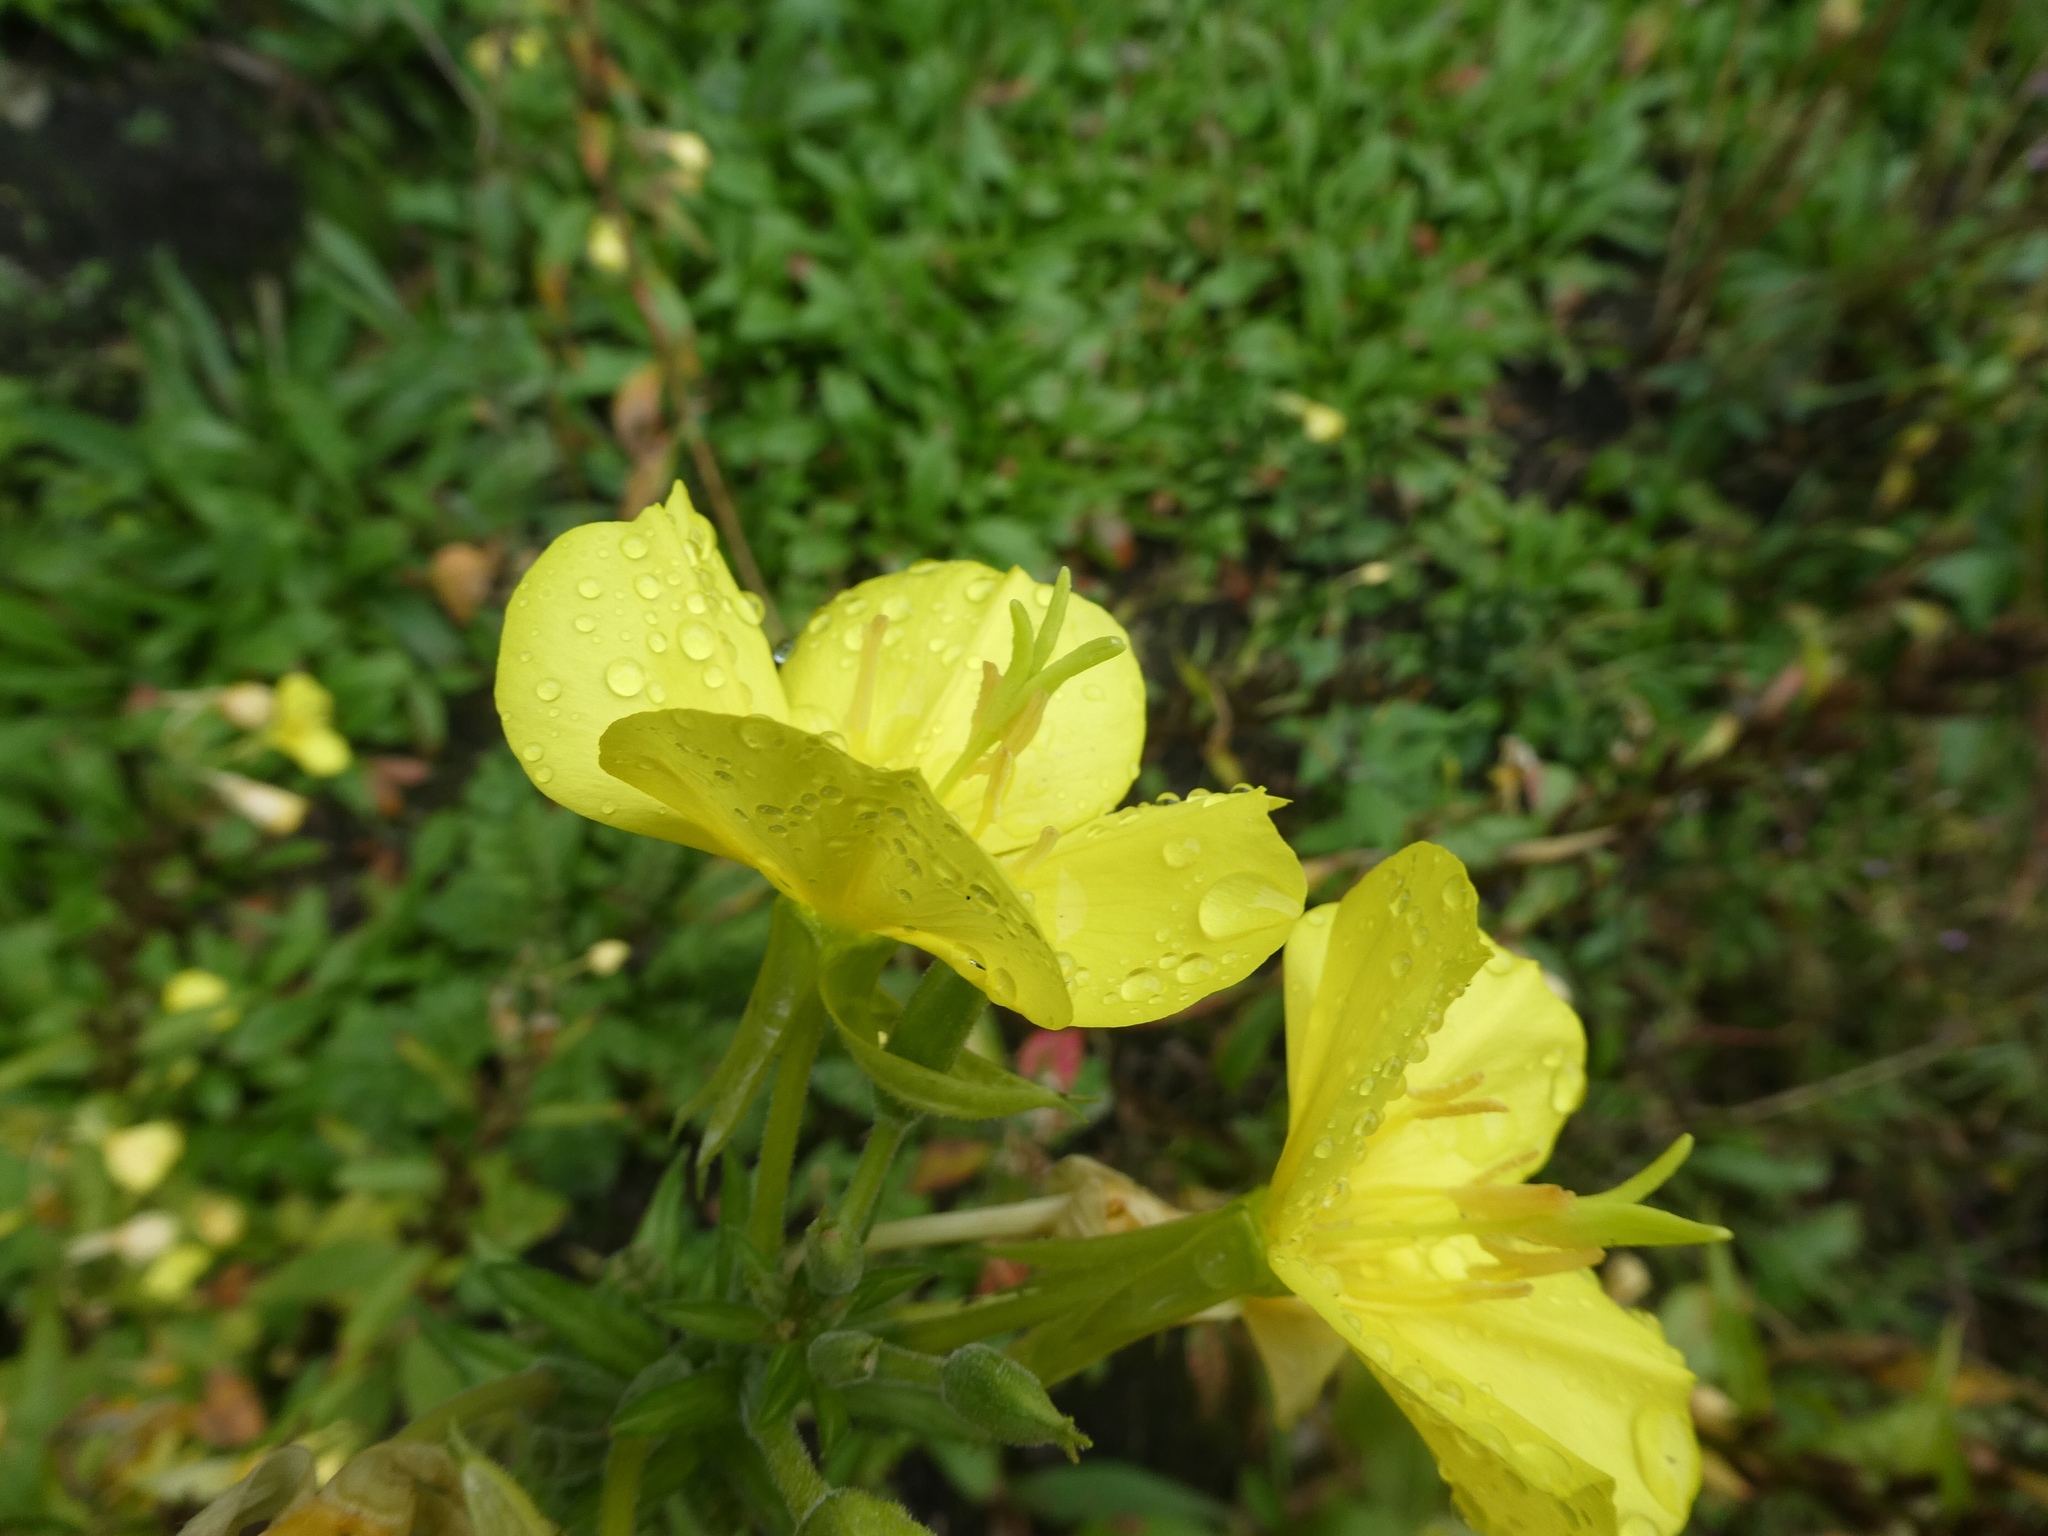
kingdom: Plantae
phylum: Tracheophyta
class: Magnoliopsida
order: Myrtales
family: Onagraceae
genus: Oenothera
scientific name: Oenothera biennis
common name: Common evening-primrose
